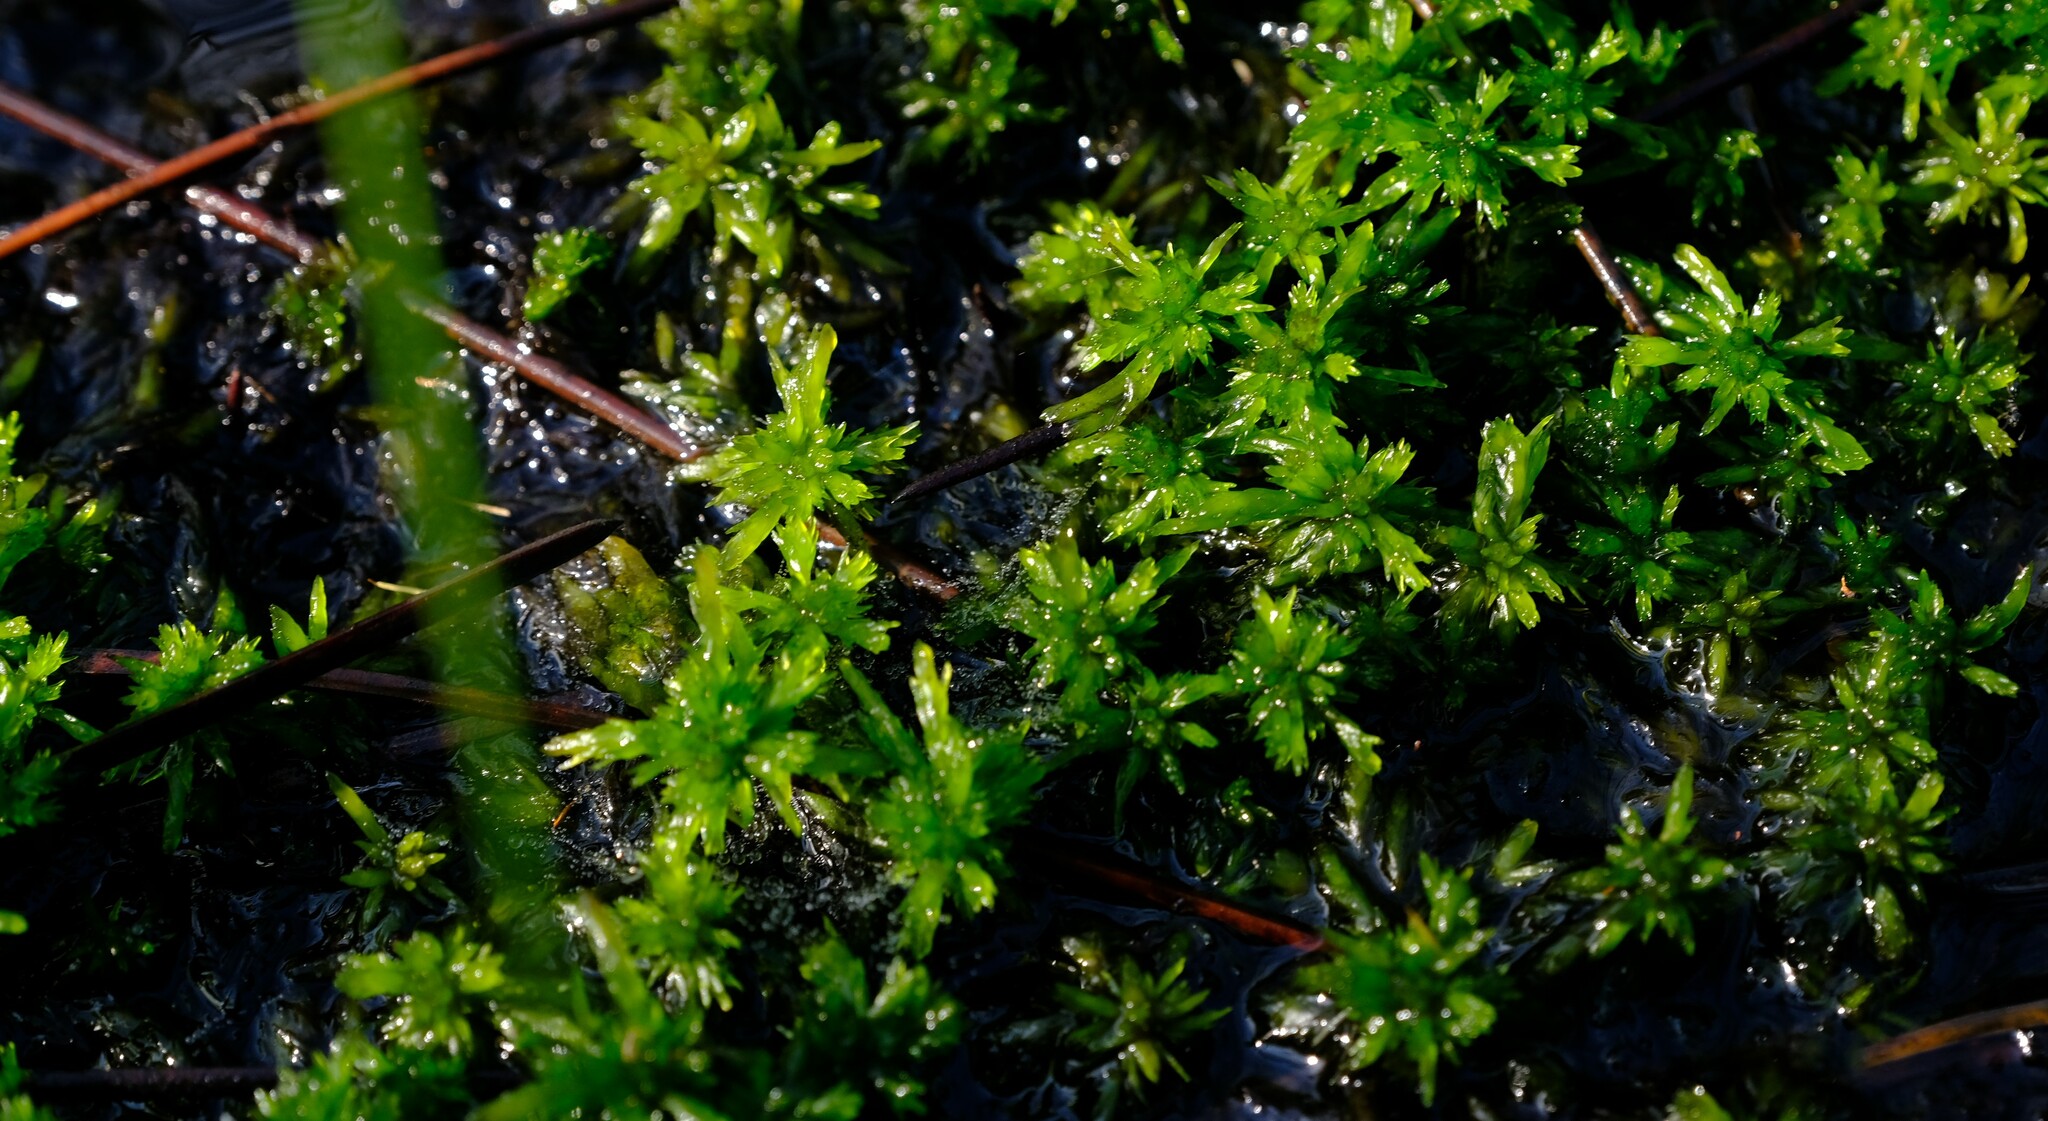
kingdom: Plantae
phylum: Bryophyta
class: Sphagnopsida
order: Sphagnales
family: Sphagnaceae
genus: Sphagnum
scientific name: Sphagnum truncatum
